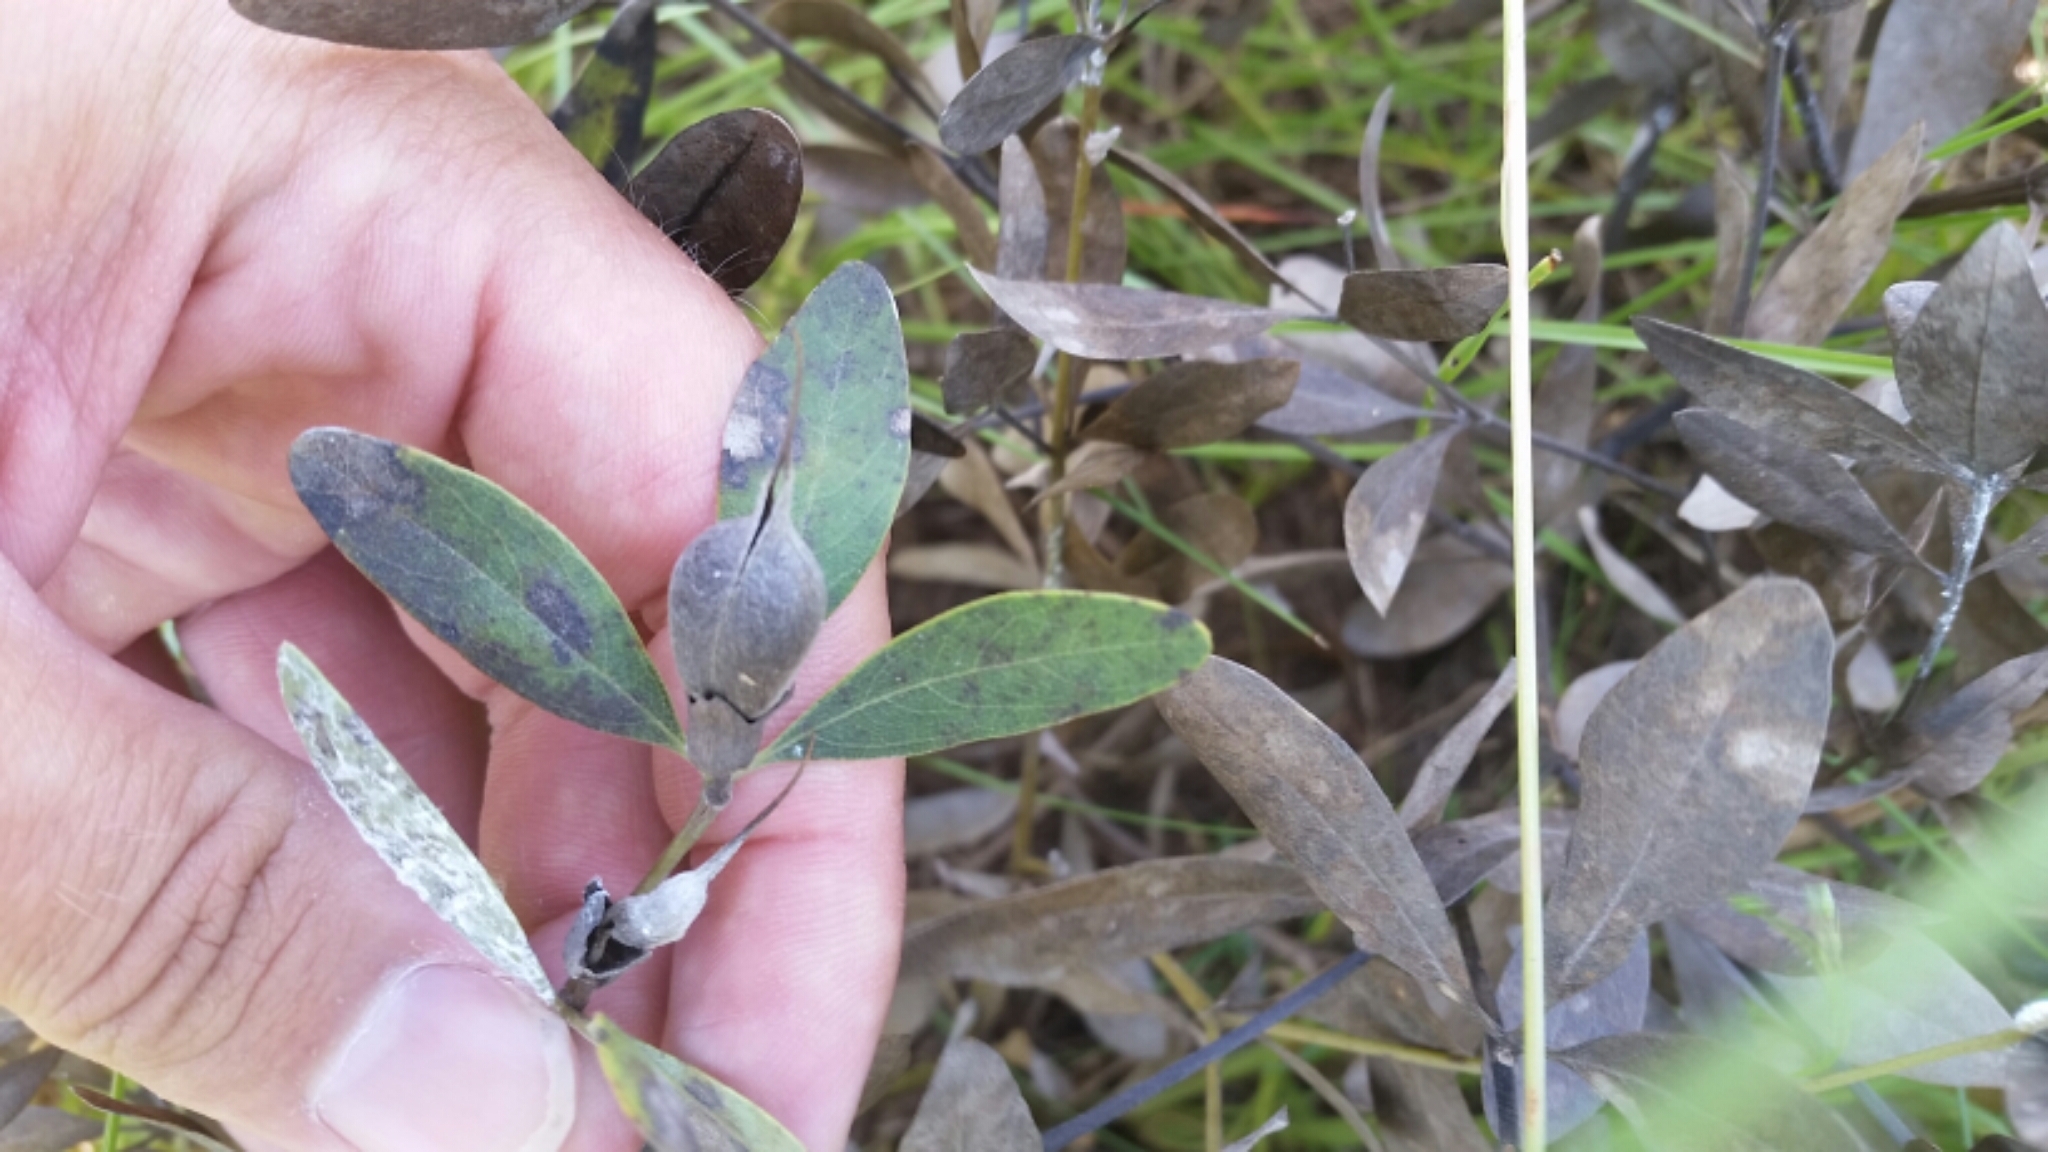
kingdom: Plantae
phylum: Tracheophyta
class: Magnoliopsida
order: Fabales
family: Fabaceae
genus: Baptisia
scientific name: Baptisia lanceolata
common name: Gopherweed
